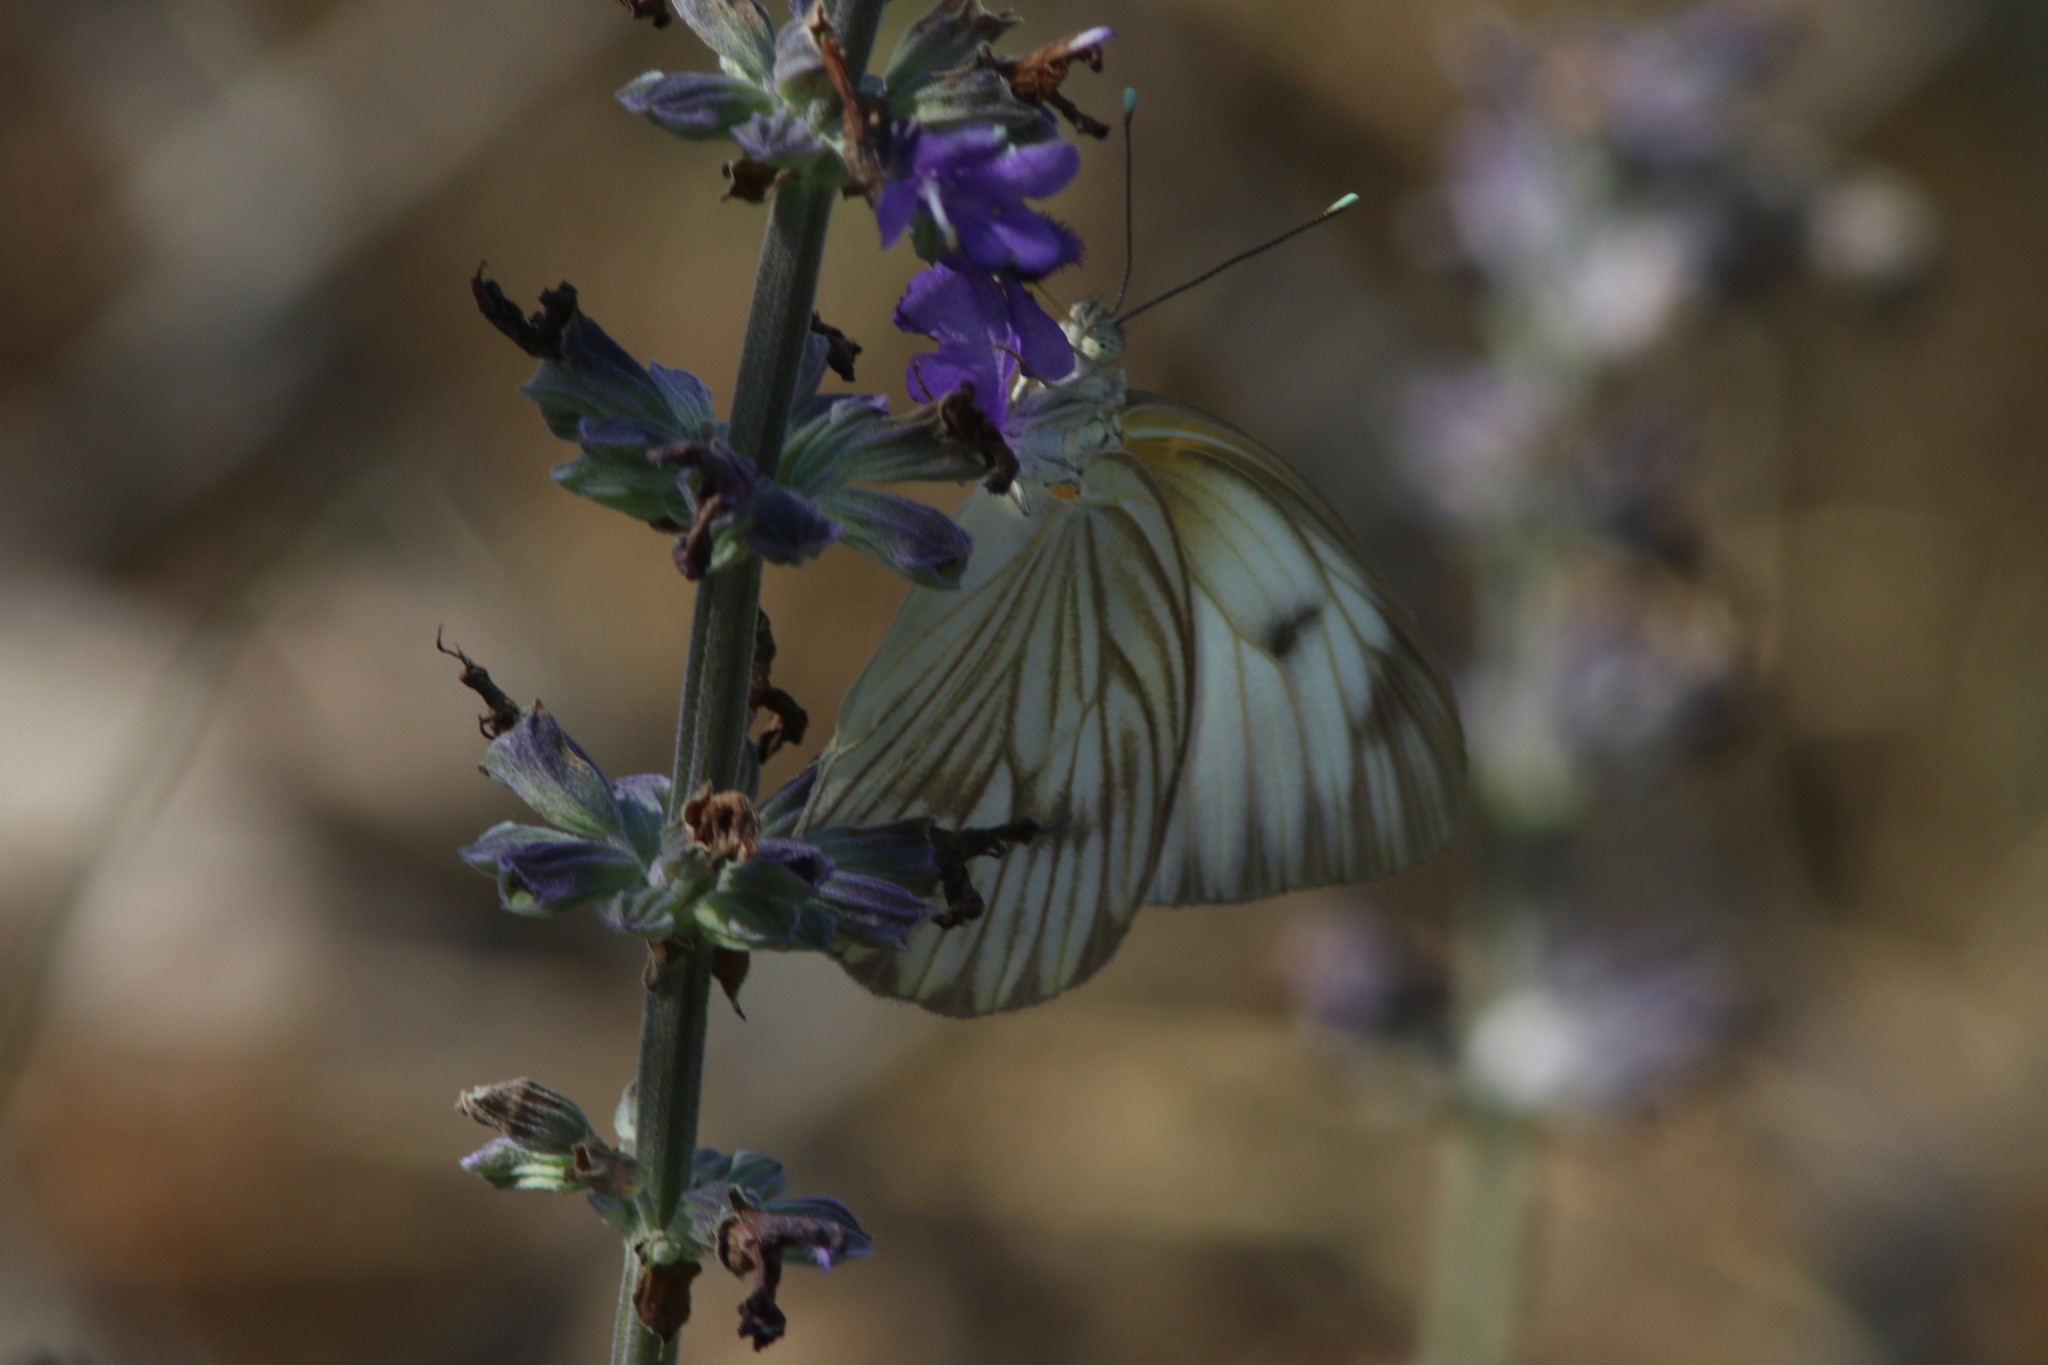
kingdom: Animalia
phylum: Arthropoda
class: Insecta
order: Lepidoptera
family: Pieridae
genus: Ascia
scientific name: Ascia monuste
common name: Great southern white
